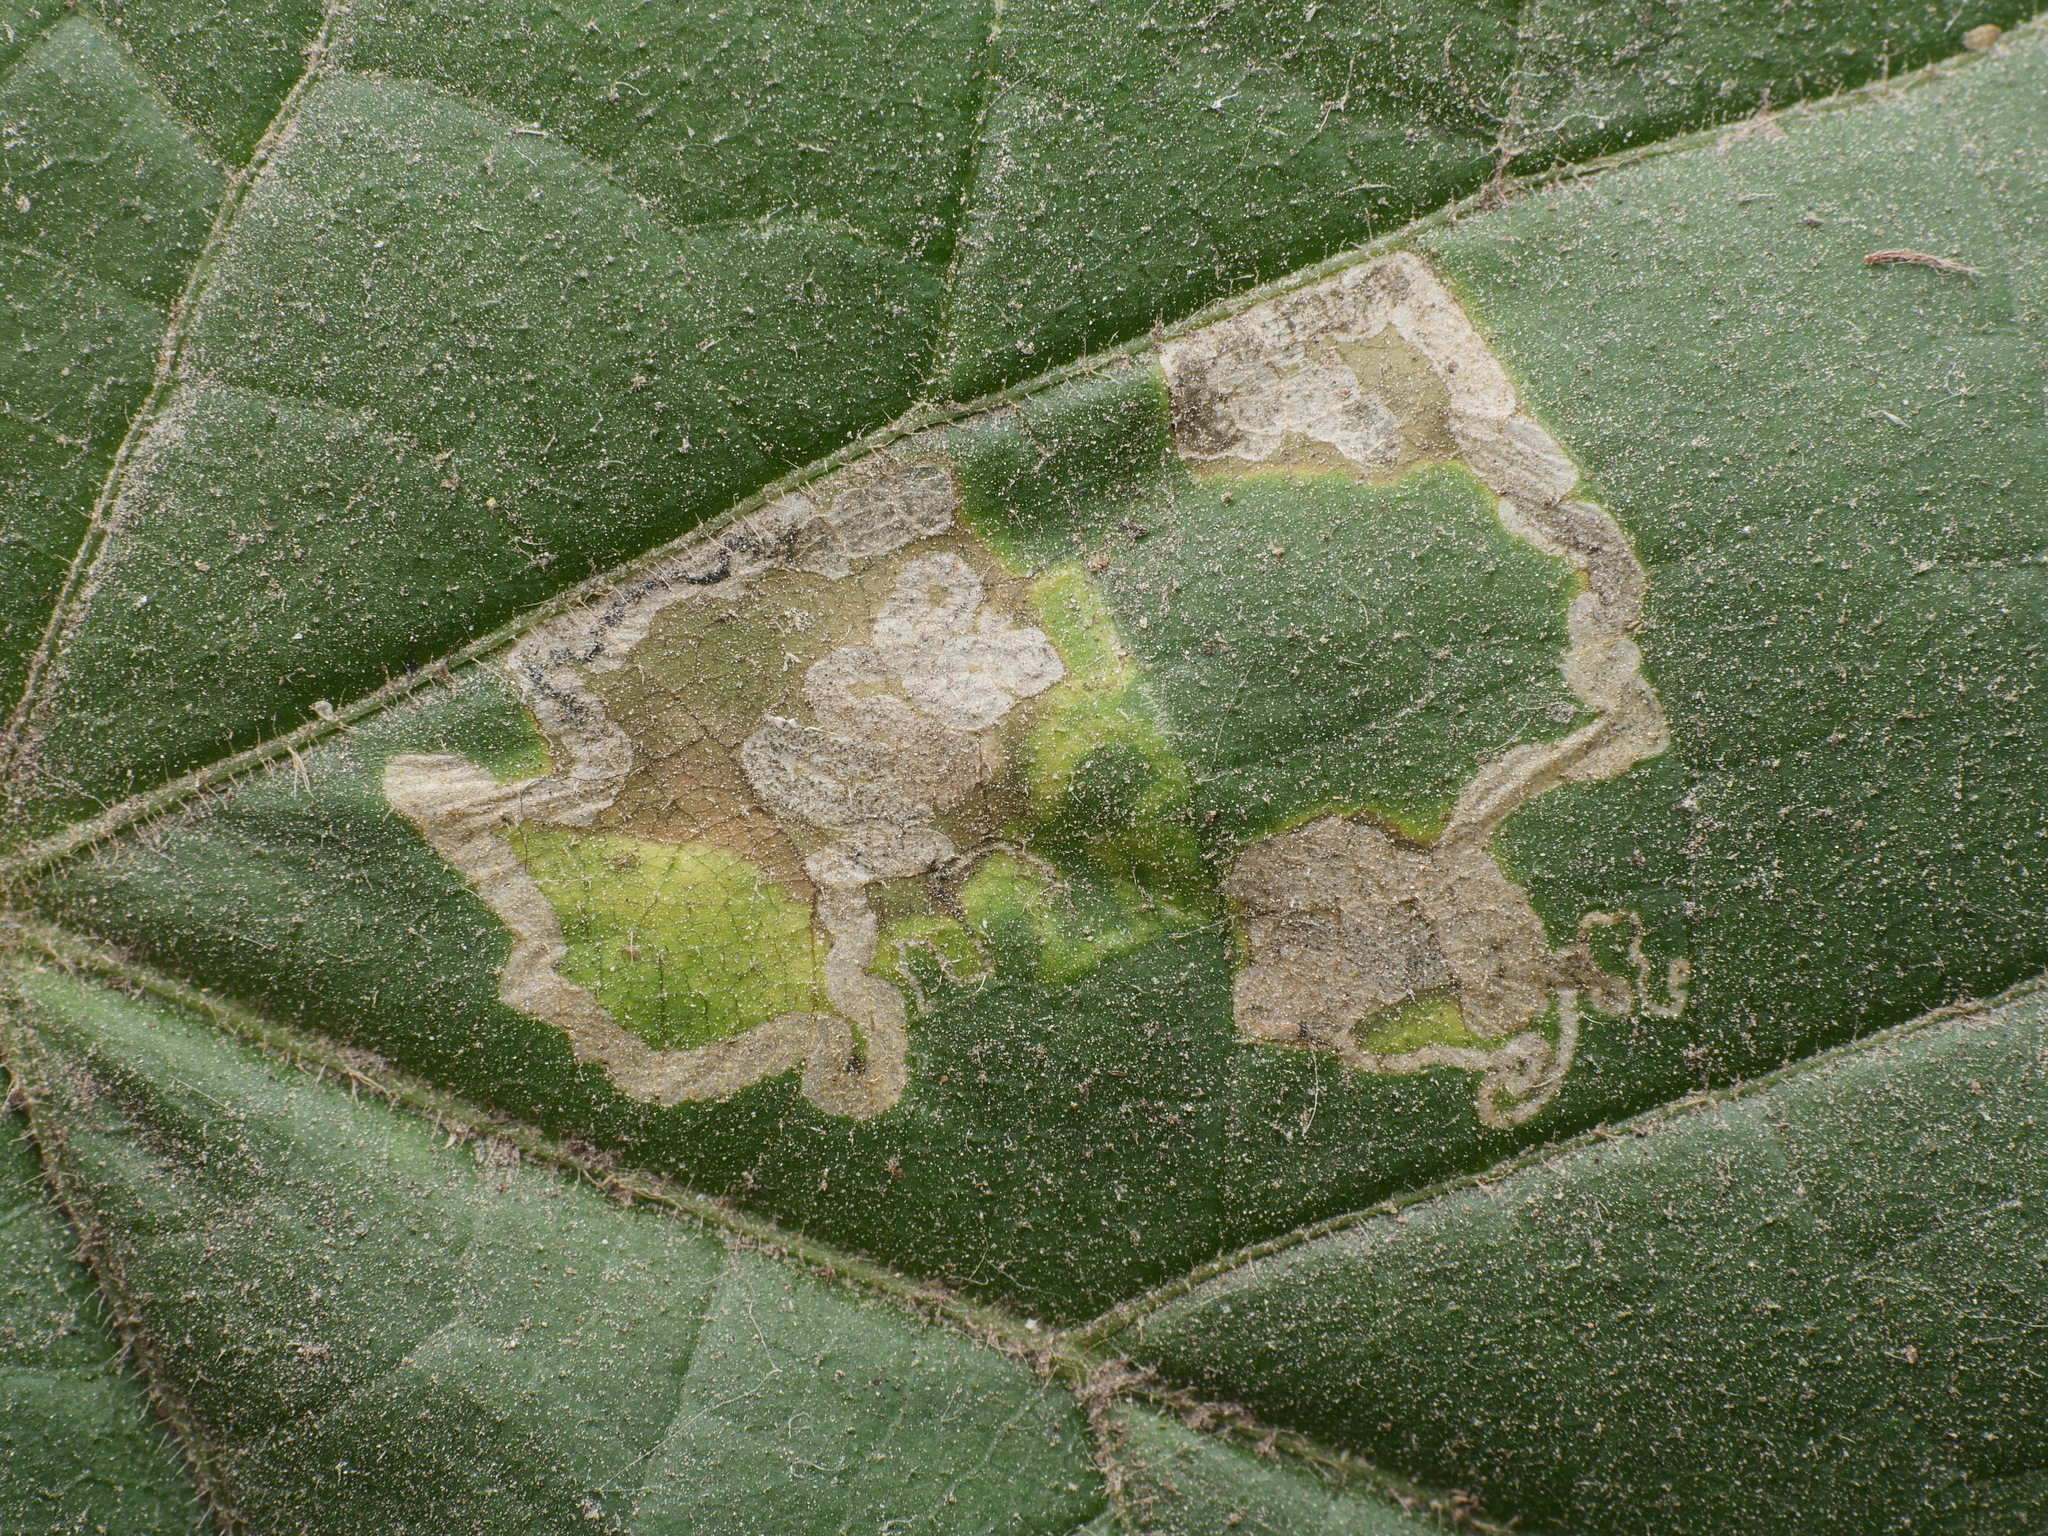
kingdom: Animalia
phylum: Arthropoda
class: Insecta
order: Lepidoptera
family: Nepticulidae
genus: Stigmella
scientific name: Stigmella tiliae
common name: Lime pigmy
